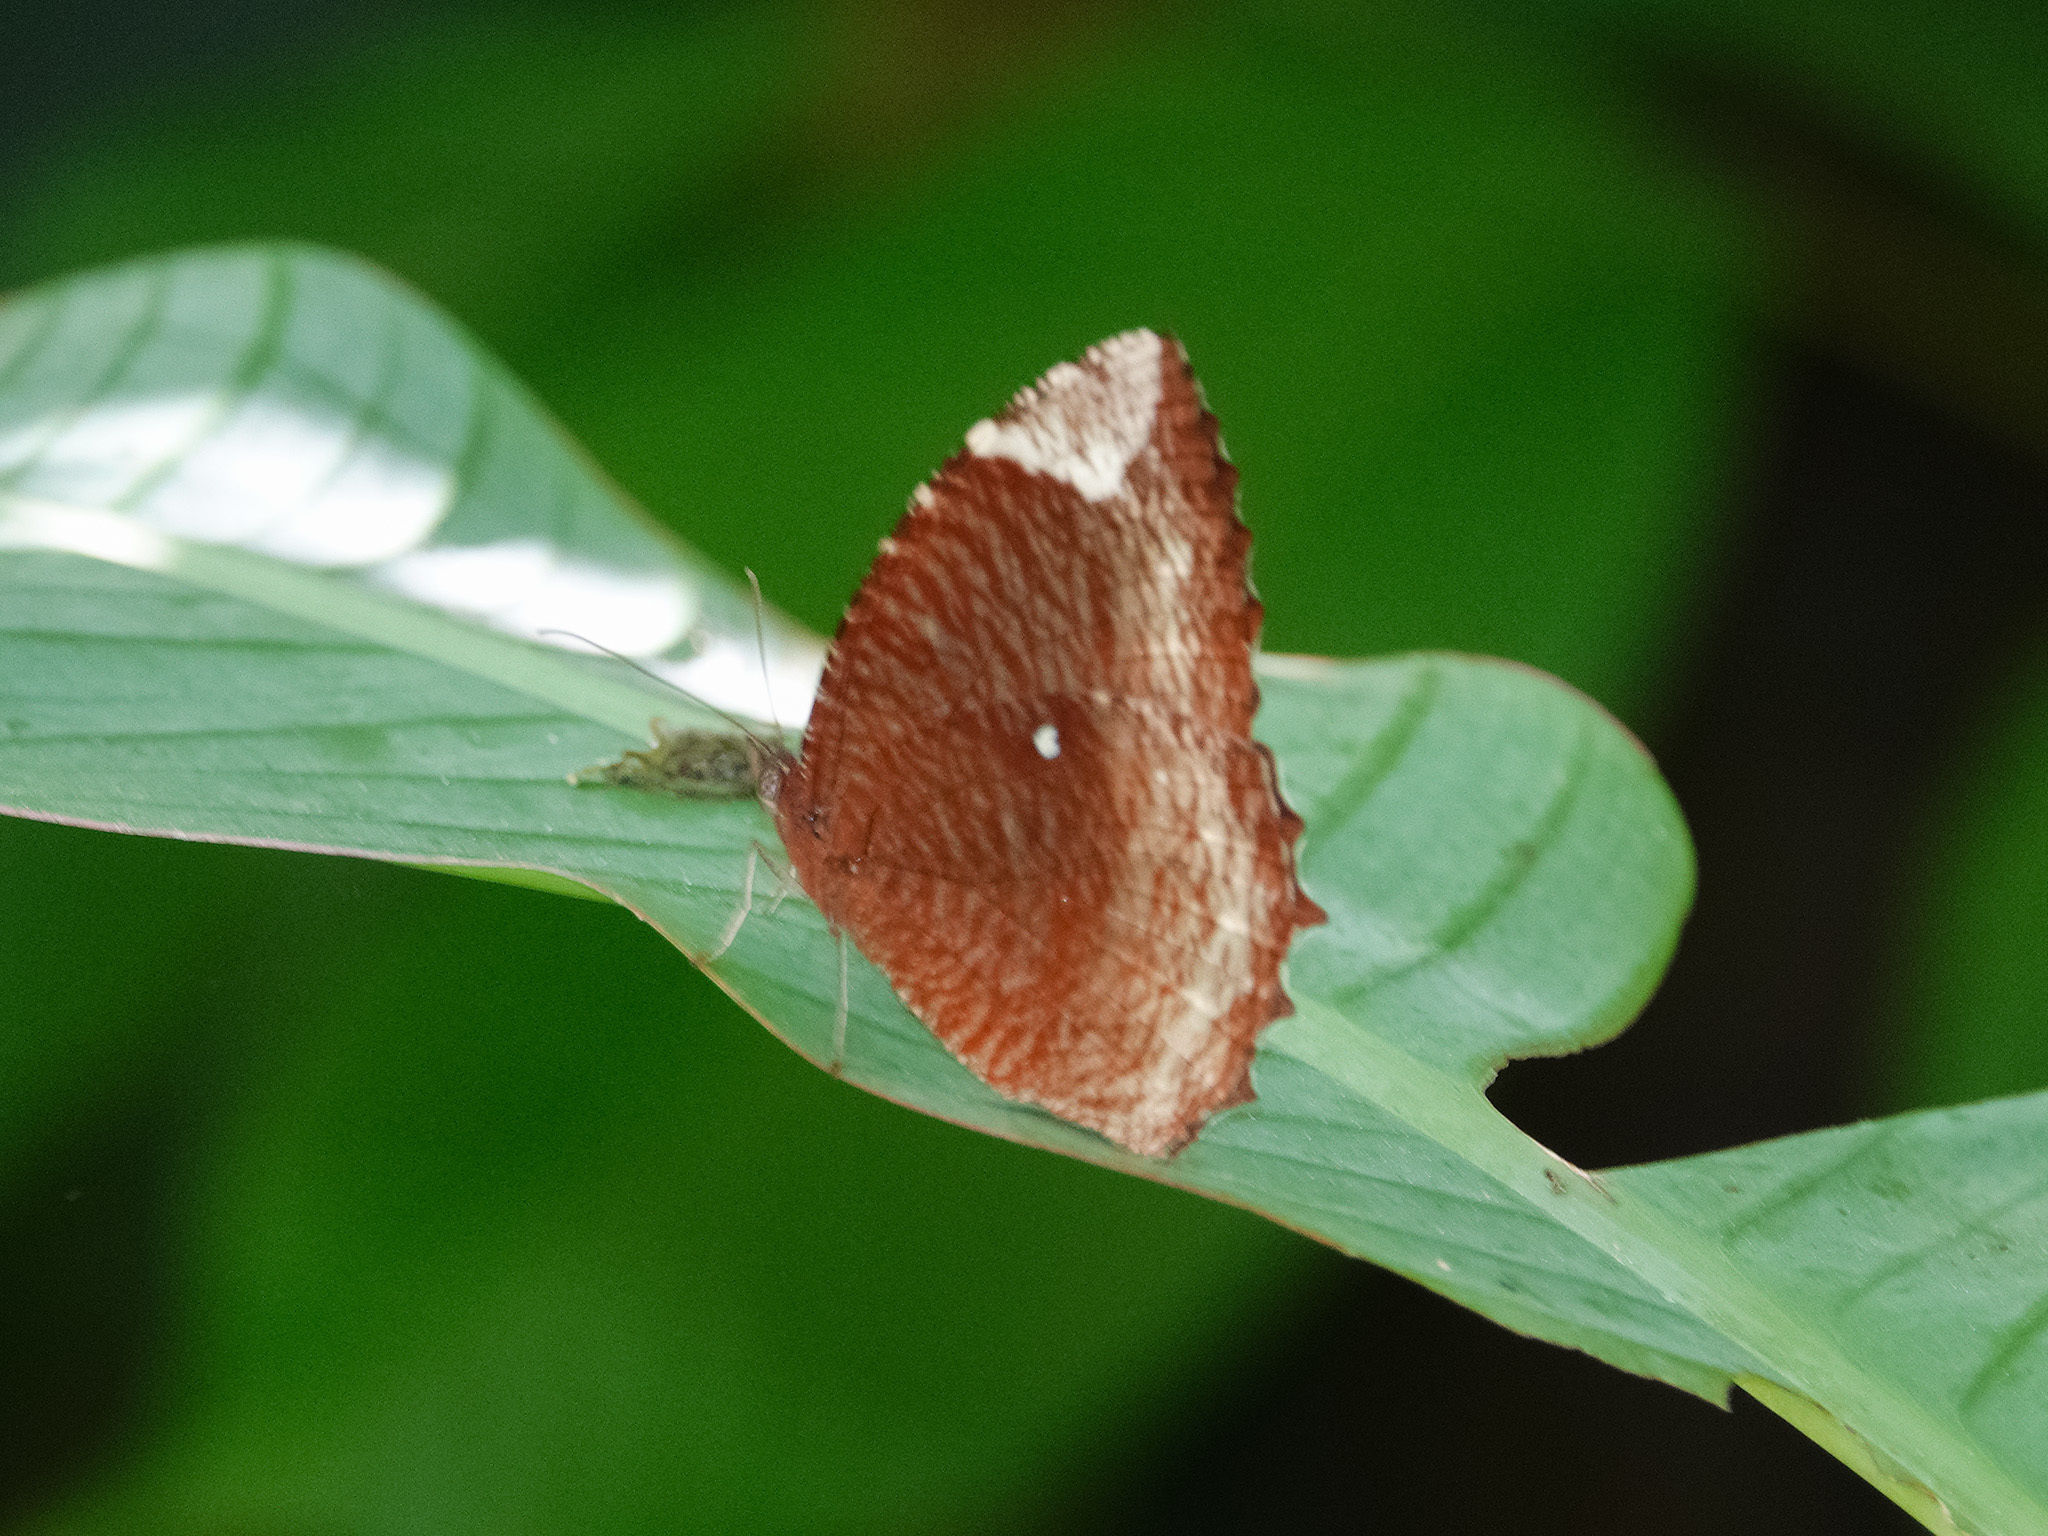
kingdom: Animalia
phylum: Arthropoda
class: Insecta
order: Lepidoptera
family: Nymphalidae
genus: Elymnias
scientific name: Elymnias hypermnestra
